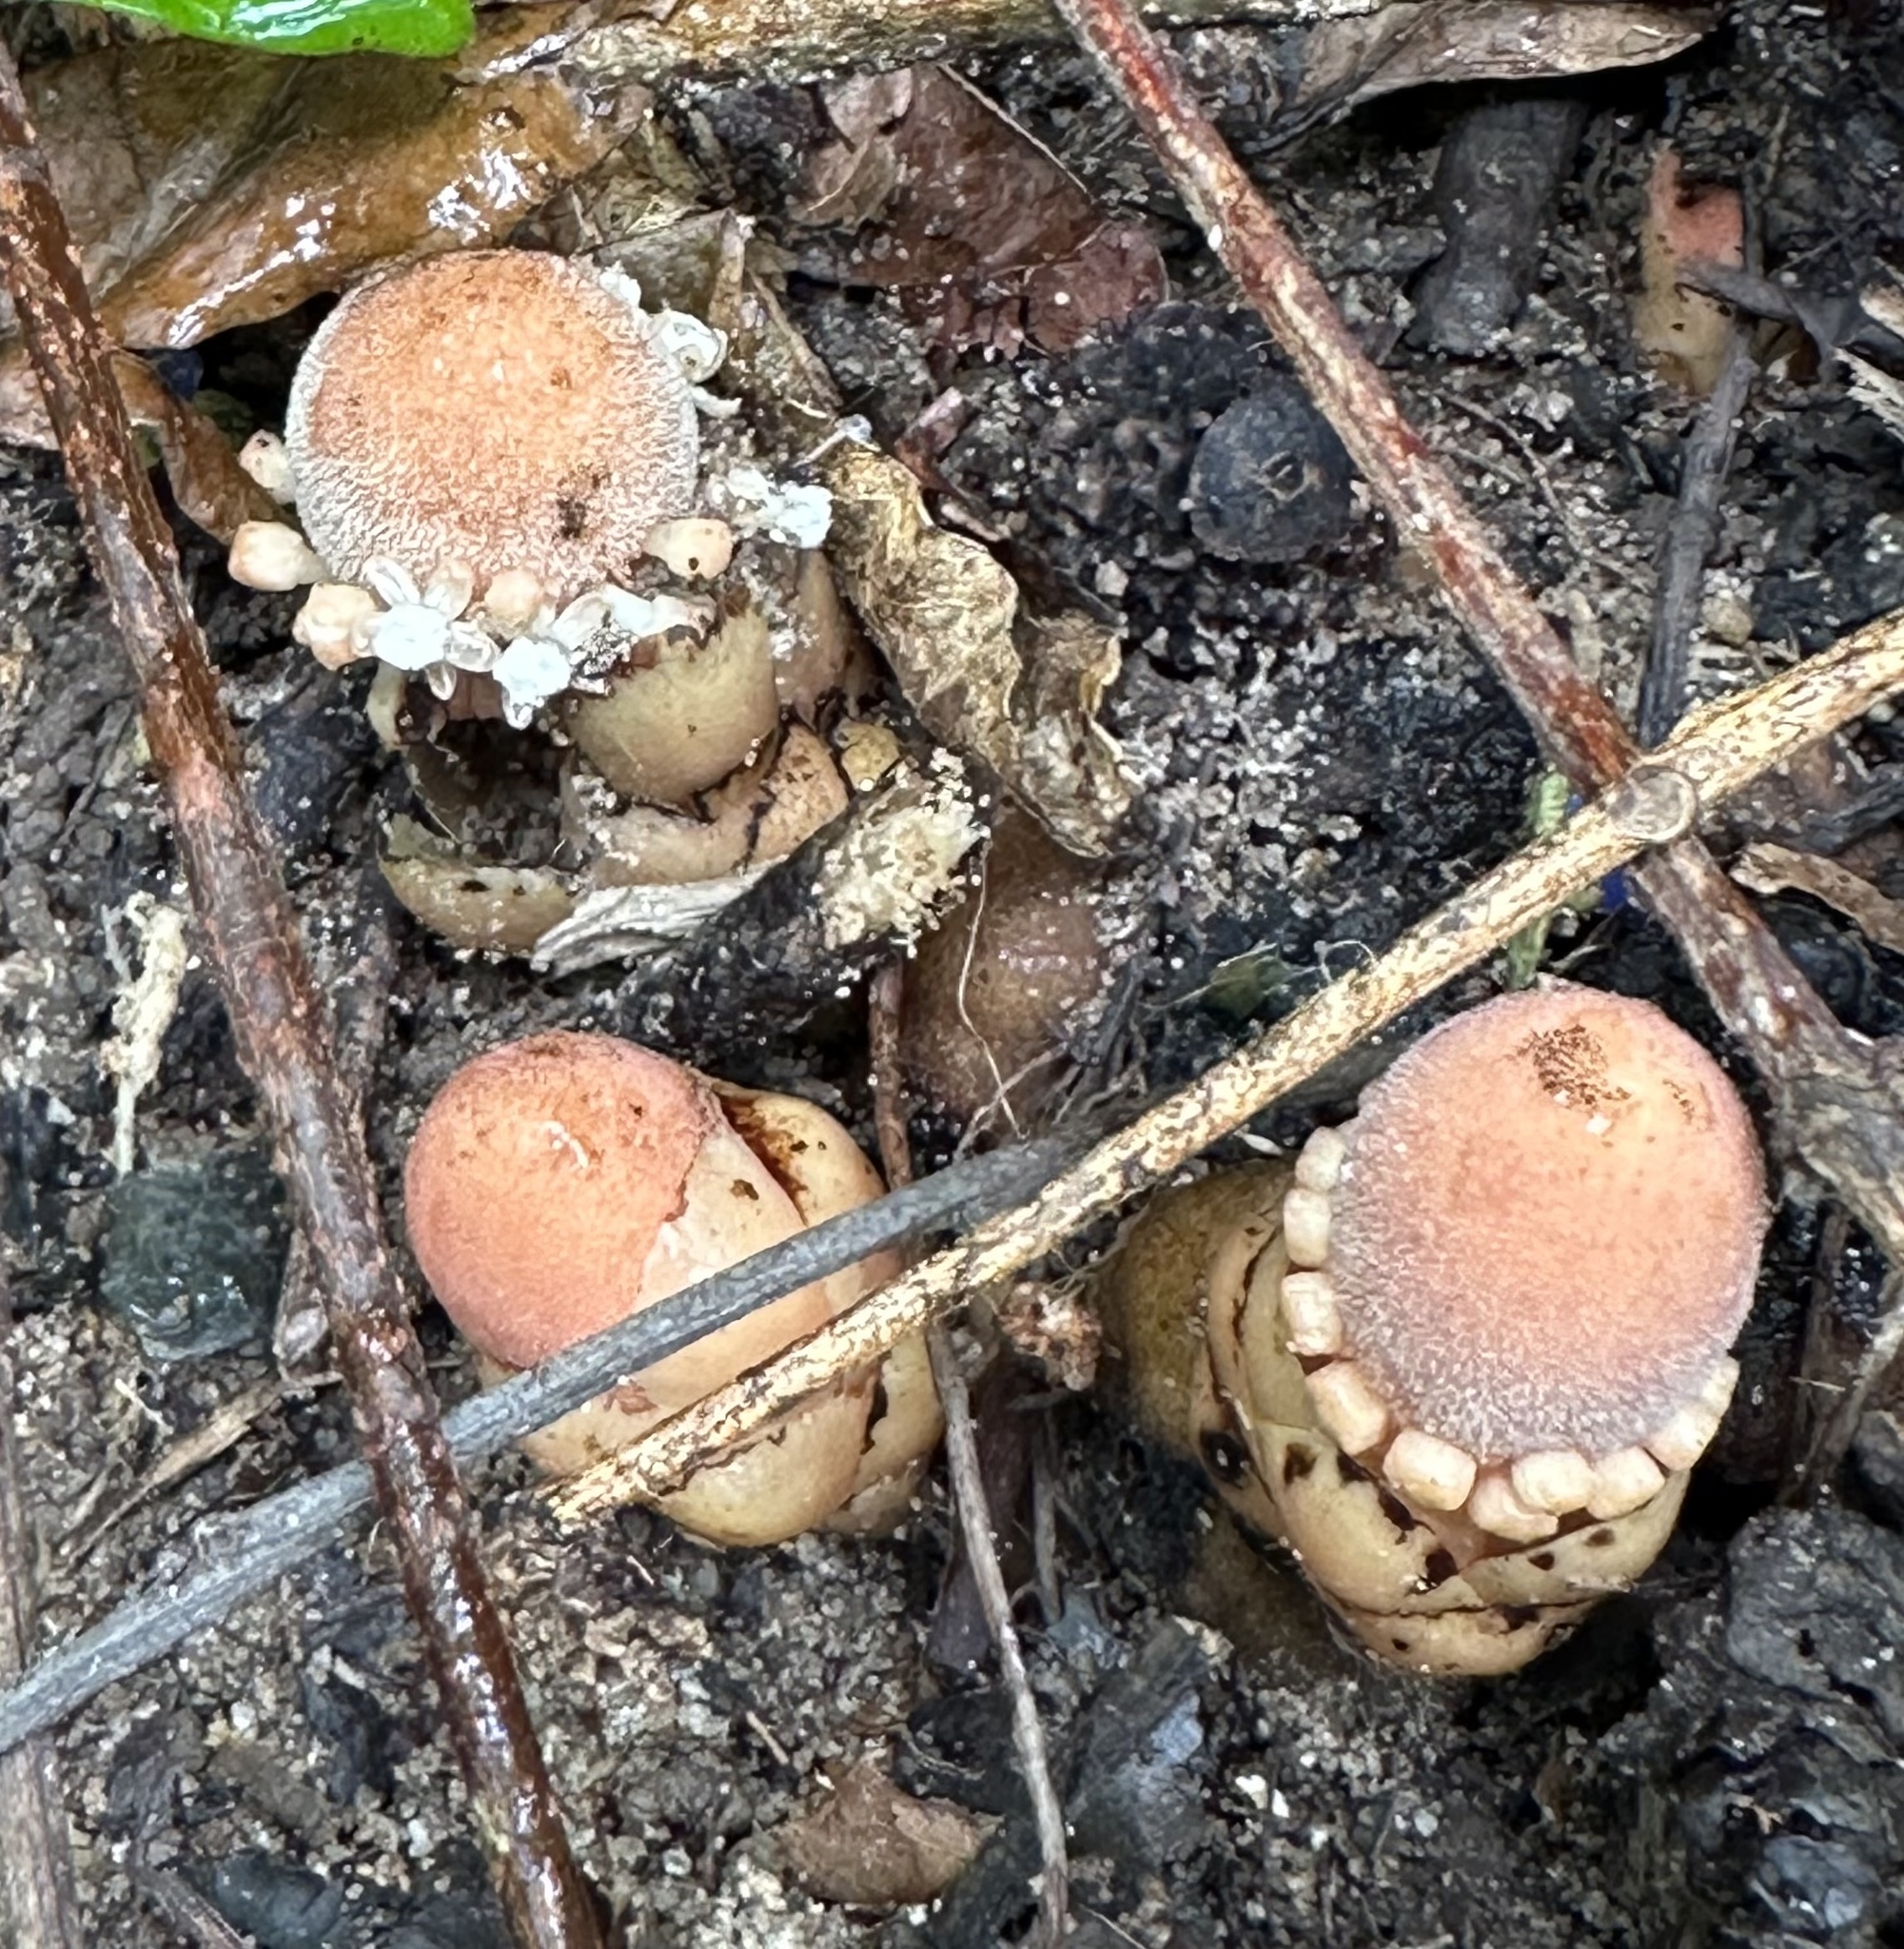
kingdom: Plantae
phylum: Tracheophyta
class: Magnoliopsida
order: Santalales
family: Balanophoraceae
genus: Balanophora
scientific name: Balanophora fungosa
